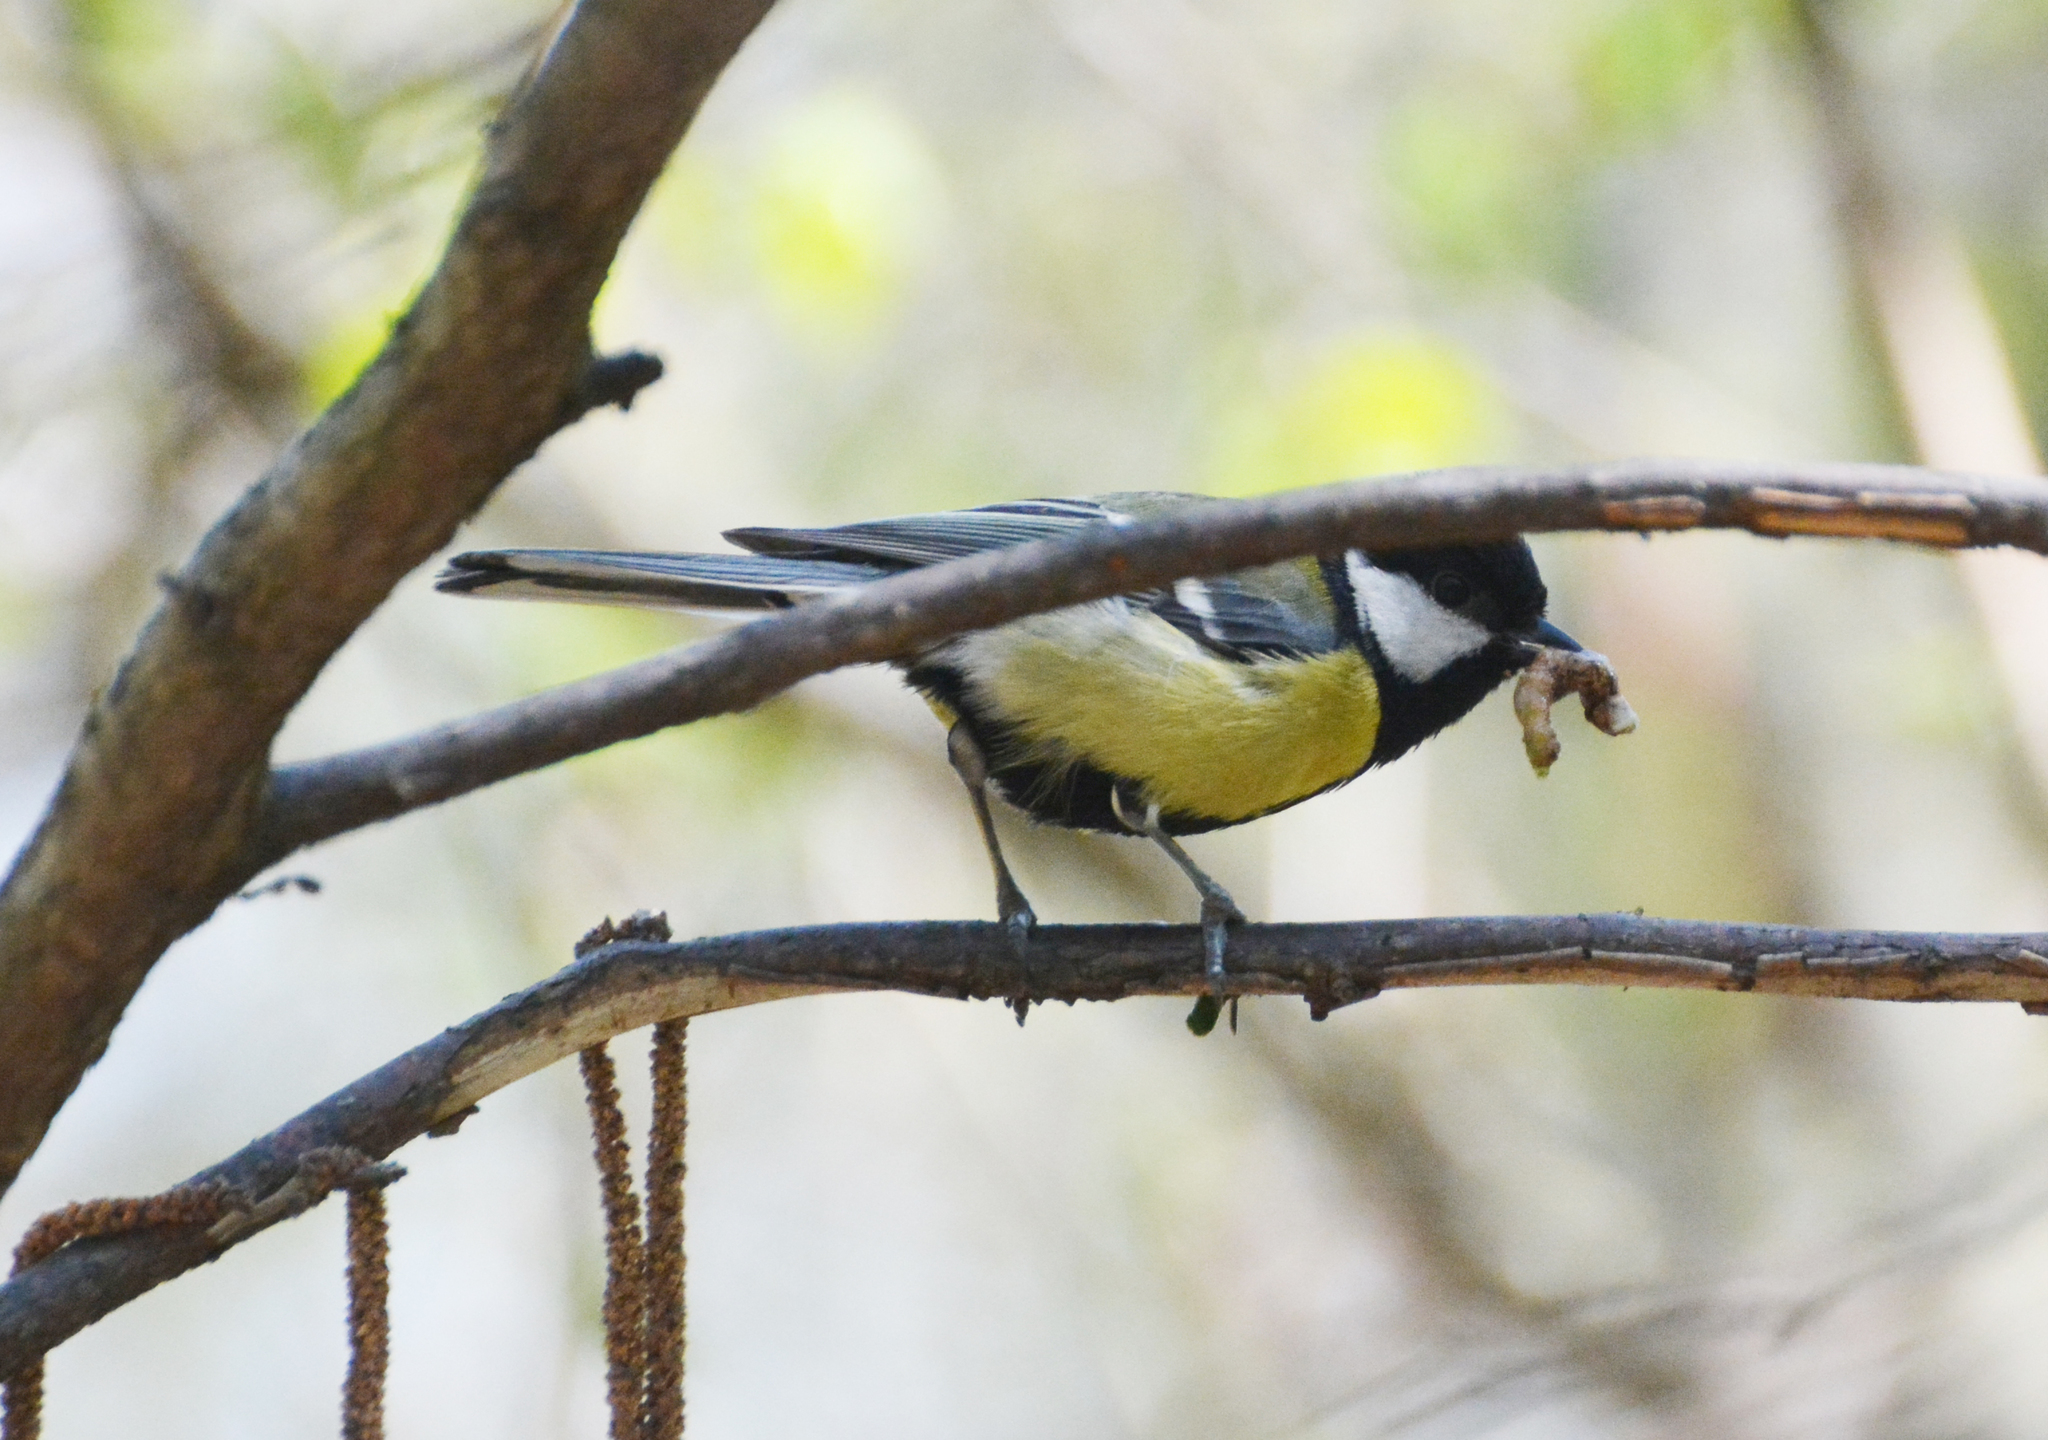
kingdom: Animalia
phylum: Chordata
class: Aves
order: Passeriformes
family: Paridae
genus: Parus
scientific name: Parus major
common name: Great tit
